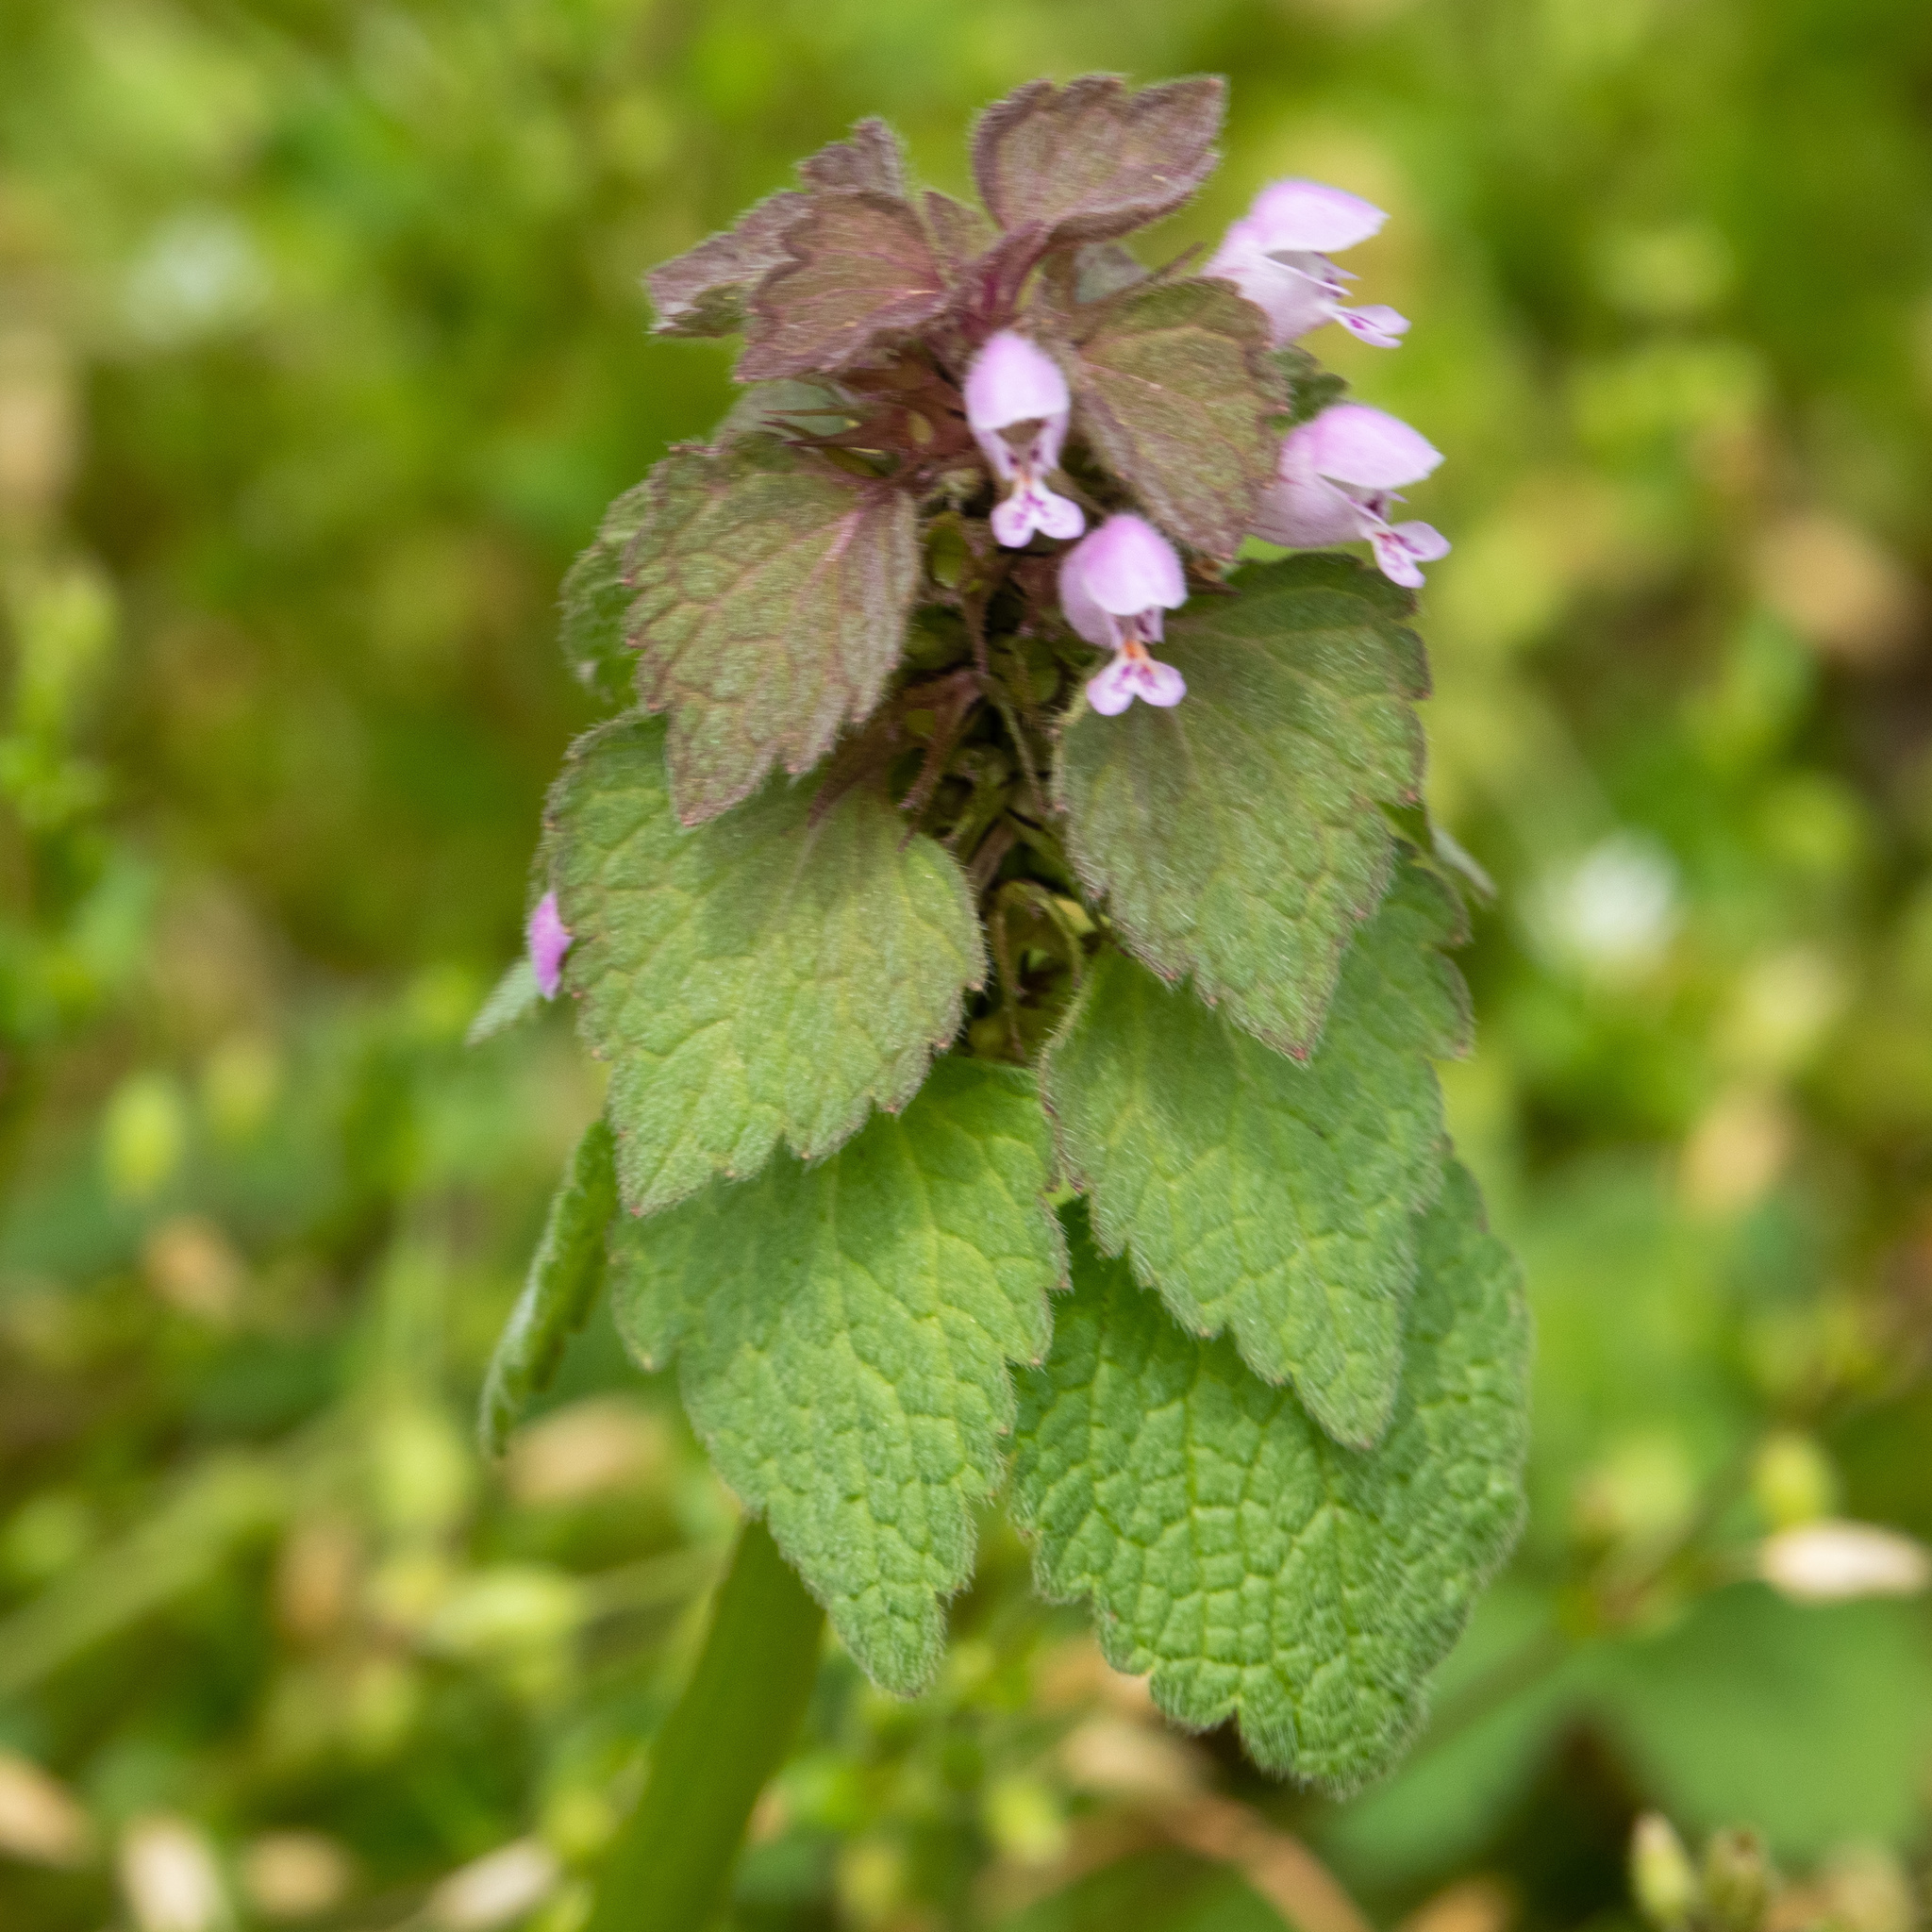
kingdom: Plantae
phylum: Tracheophyta
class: Magnoliopsida
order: Lamiales
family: Lamiaceae
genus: Lamium
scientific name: Lamium purpureum
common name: Red dead-nettle
